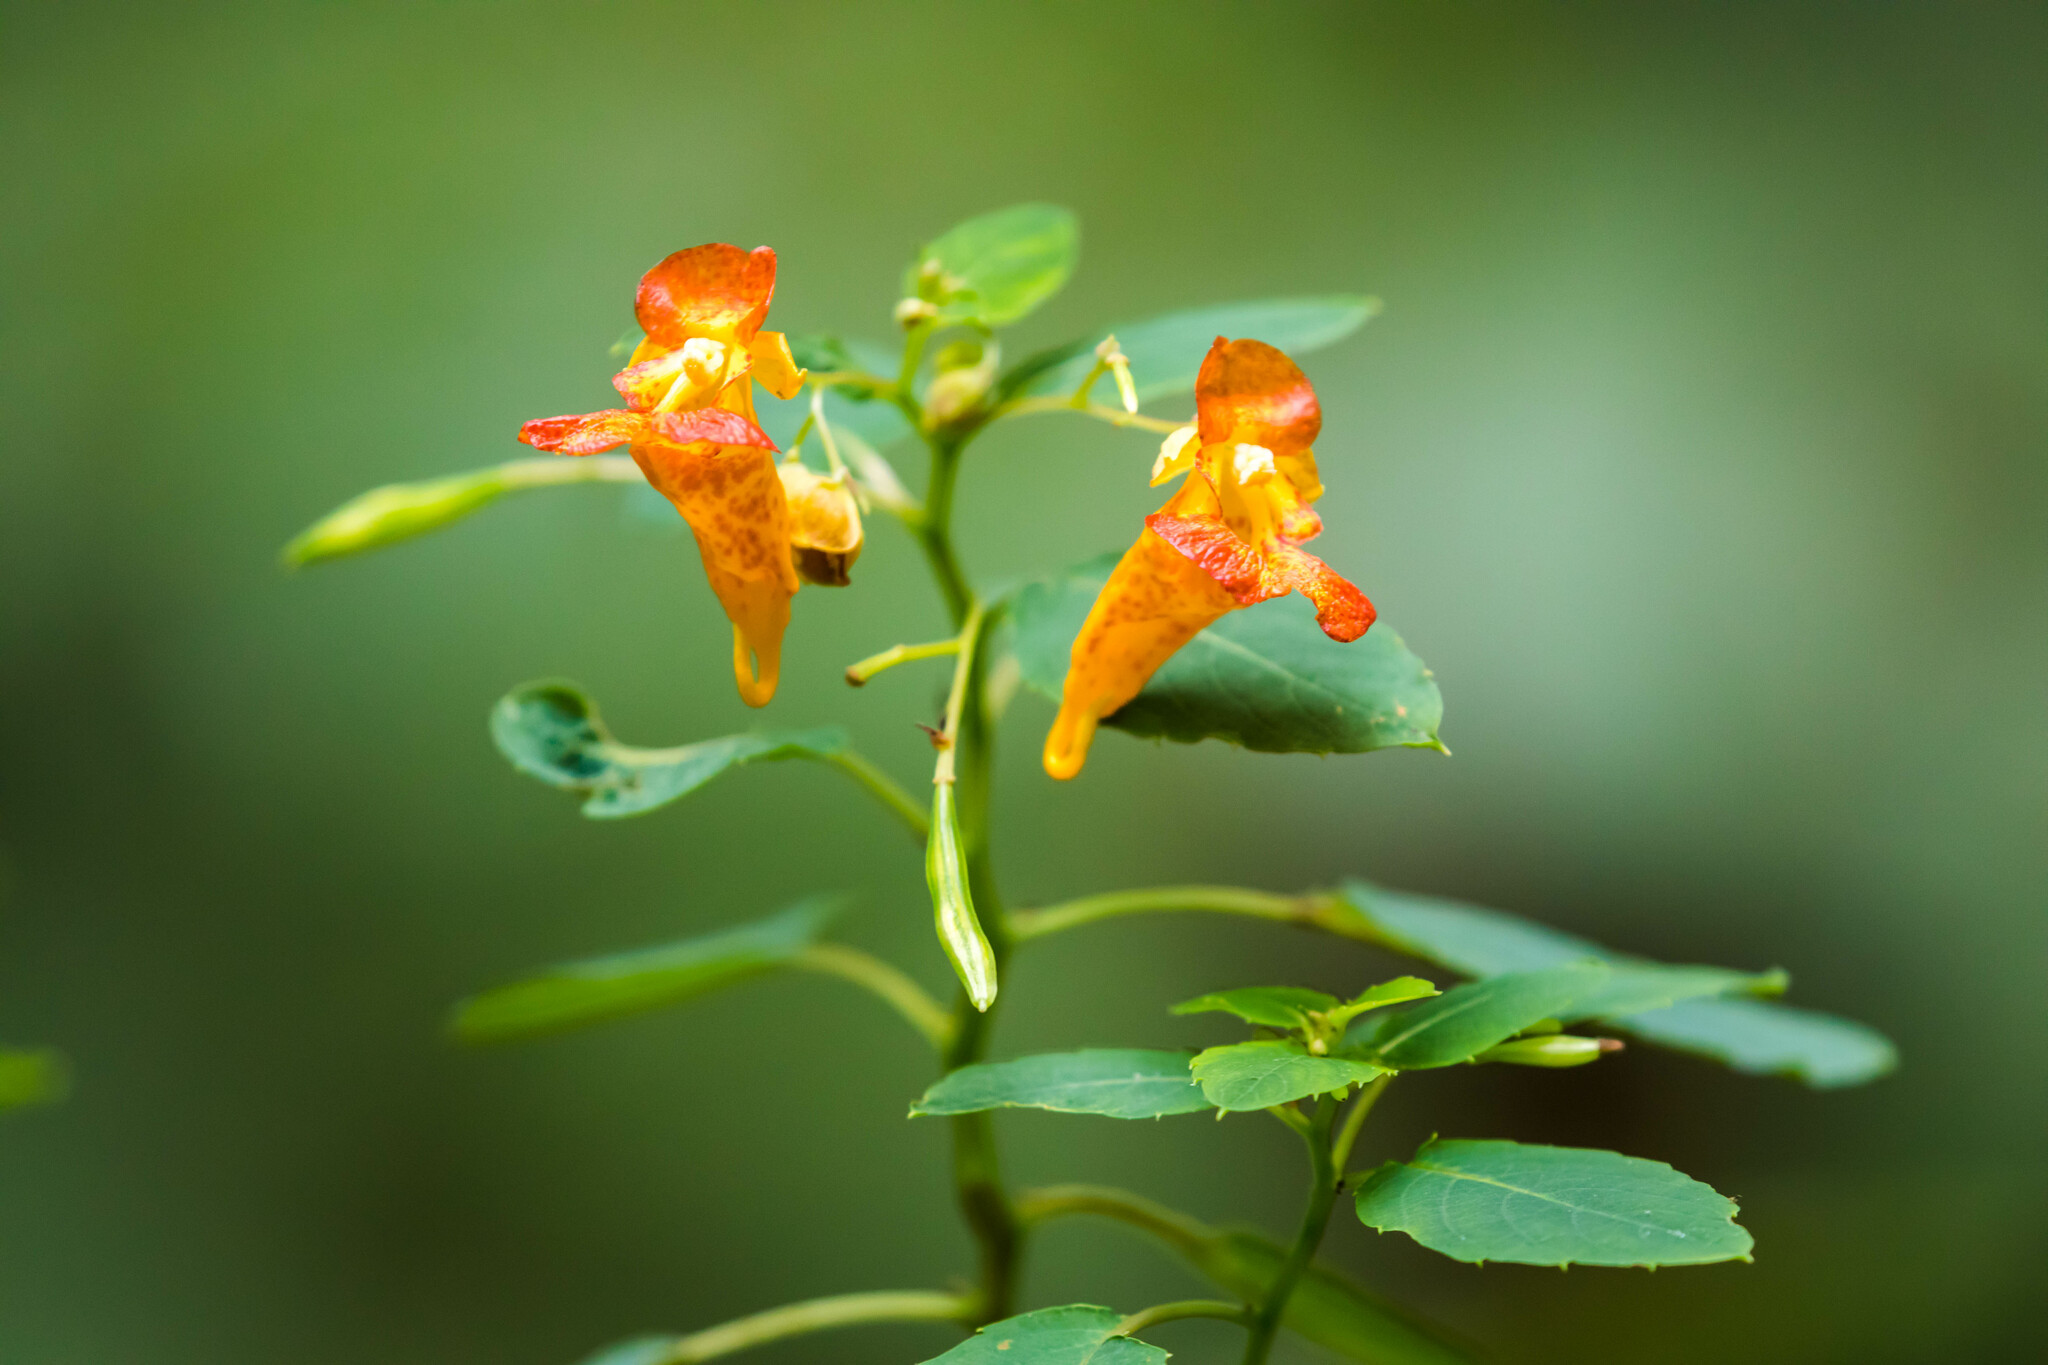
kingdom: Plantae
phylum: Tracheophyta
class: Magnoliopsida
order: Ericales
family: Balsaminaceae
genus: Impatiens
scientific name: Impatiens capensis
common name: Orange balsam
